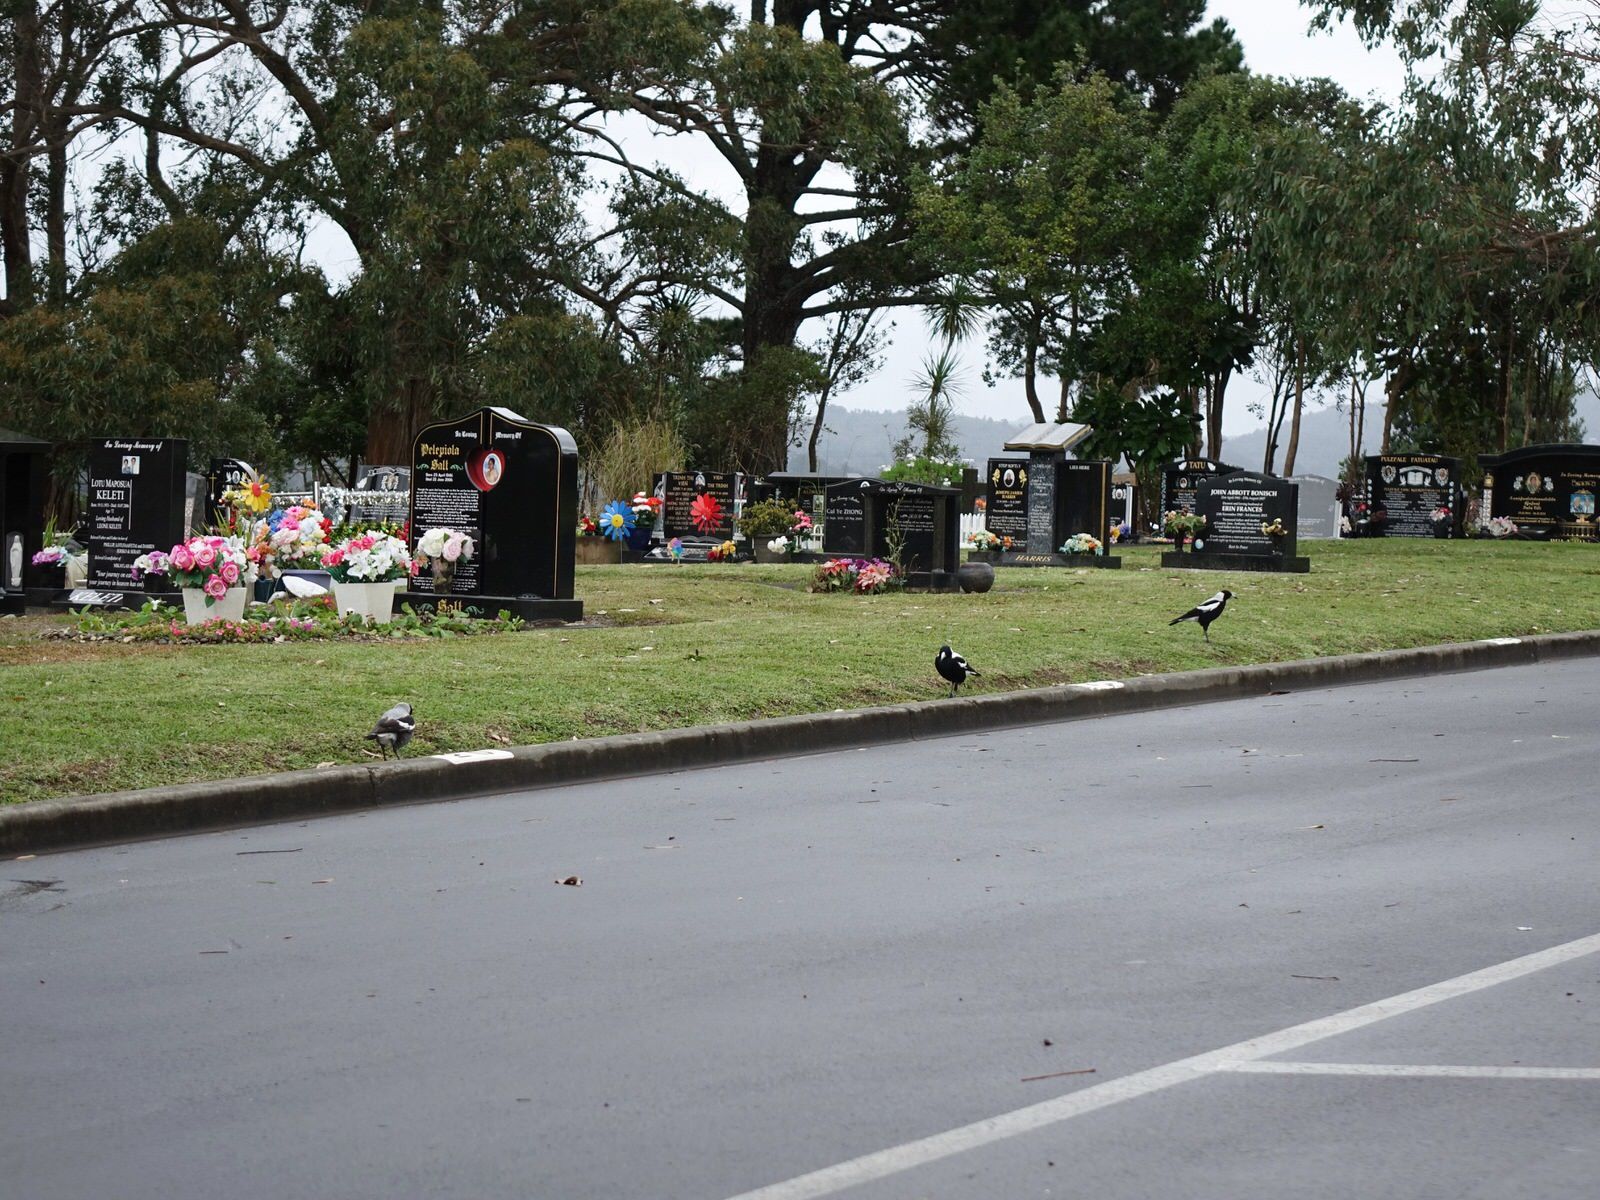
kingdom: Animalia
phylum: Chordata
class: Aves
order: Passeriformes
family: Cracticidae
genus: Gymnorhina
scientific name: Gymnorhina tibicen
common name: Australian magpie
